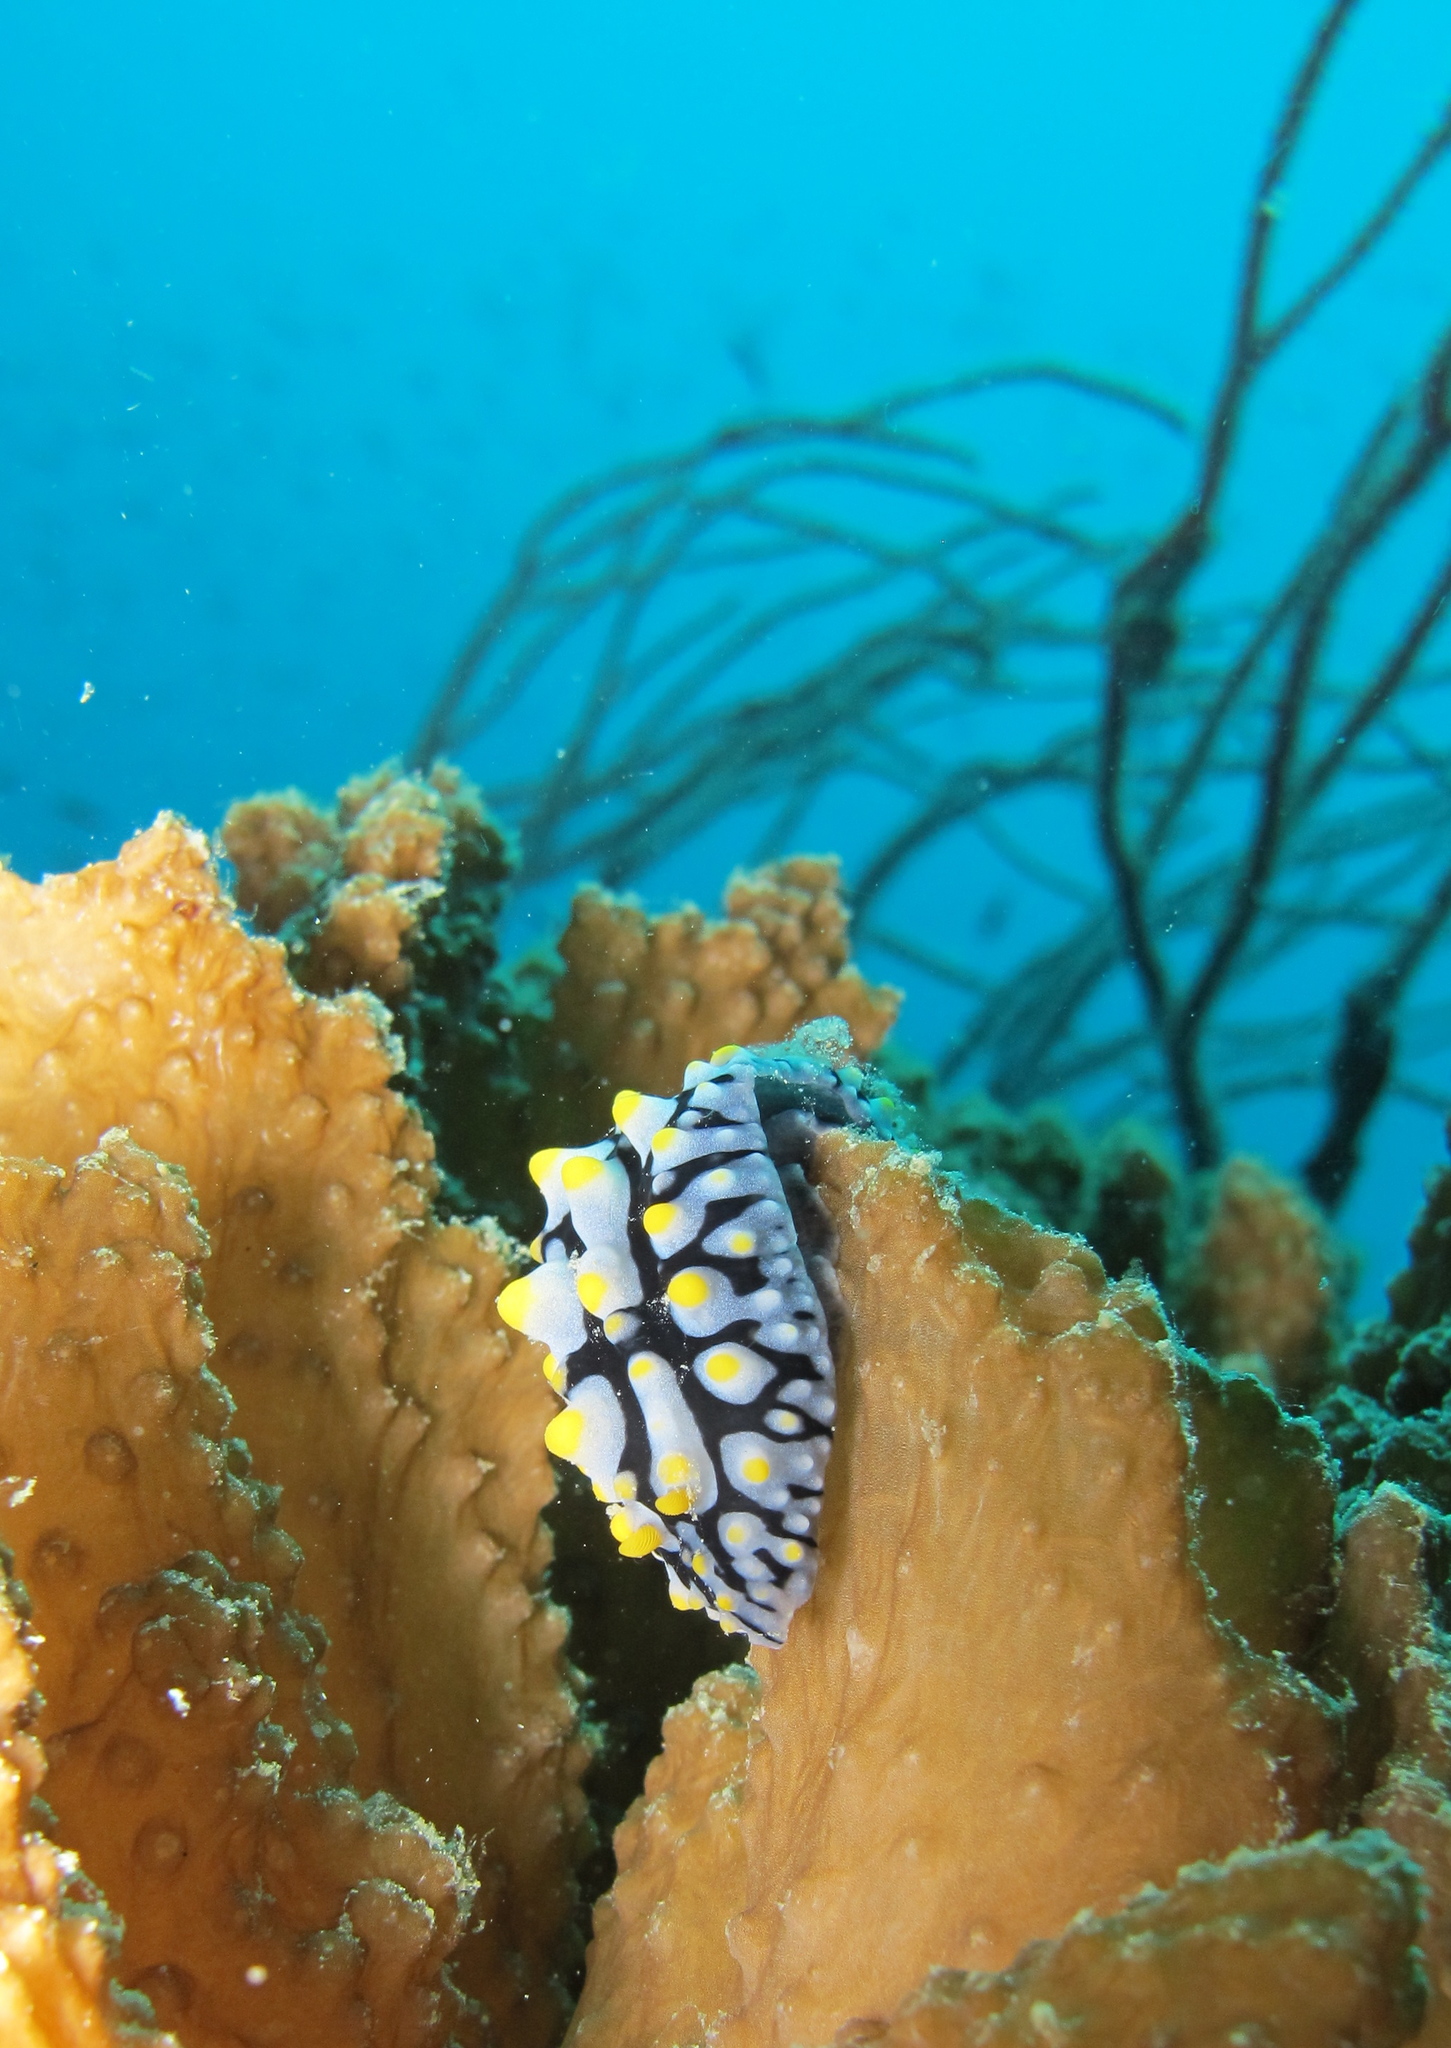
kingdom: Animalia
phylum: Mollusca
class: Gastropoda
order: Nudibranchia
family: Phyllidiidae
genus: Phyllidia
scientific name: Phyllidia varicosa
